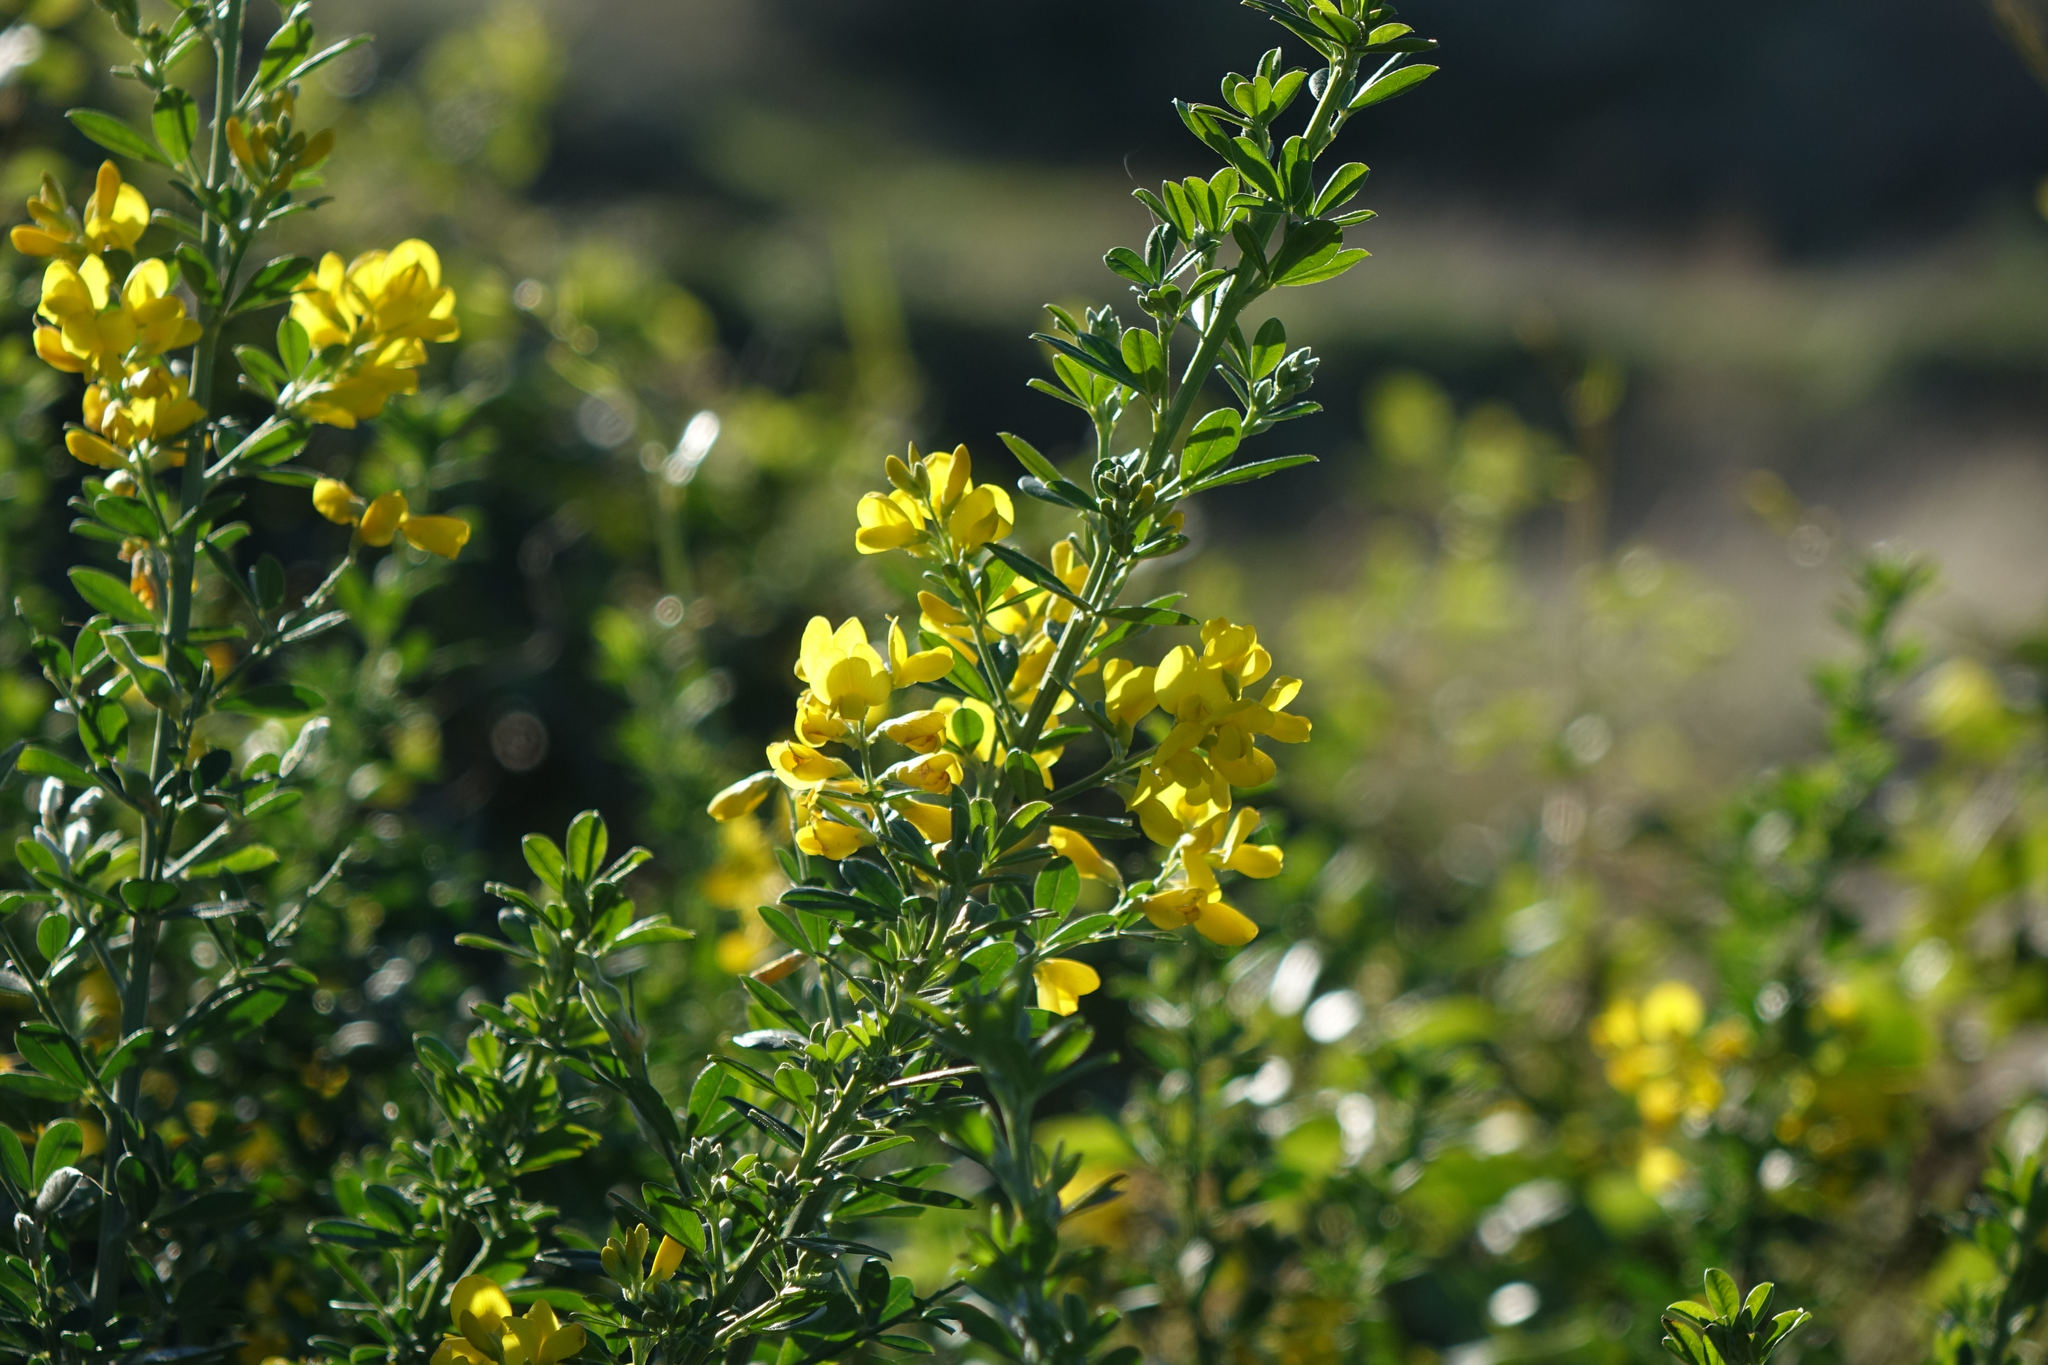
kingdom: Plantae
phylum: Tracheophyta
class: Magnoliopsida
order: Fabales
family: Fabaceae
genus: Genista
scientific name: Genista monspessulana
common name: Montpellier broom
